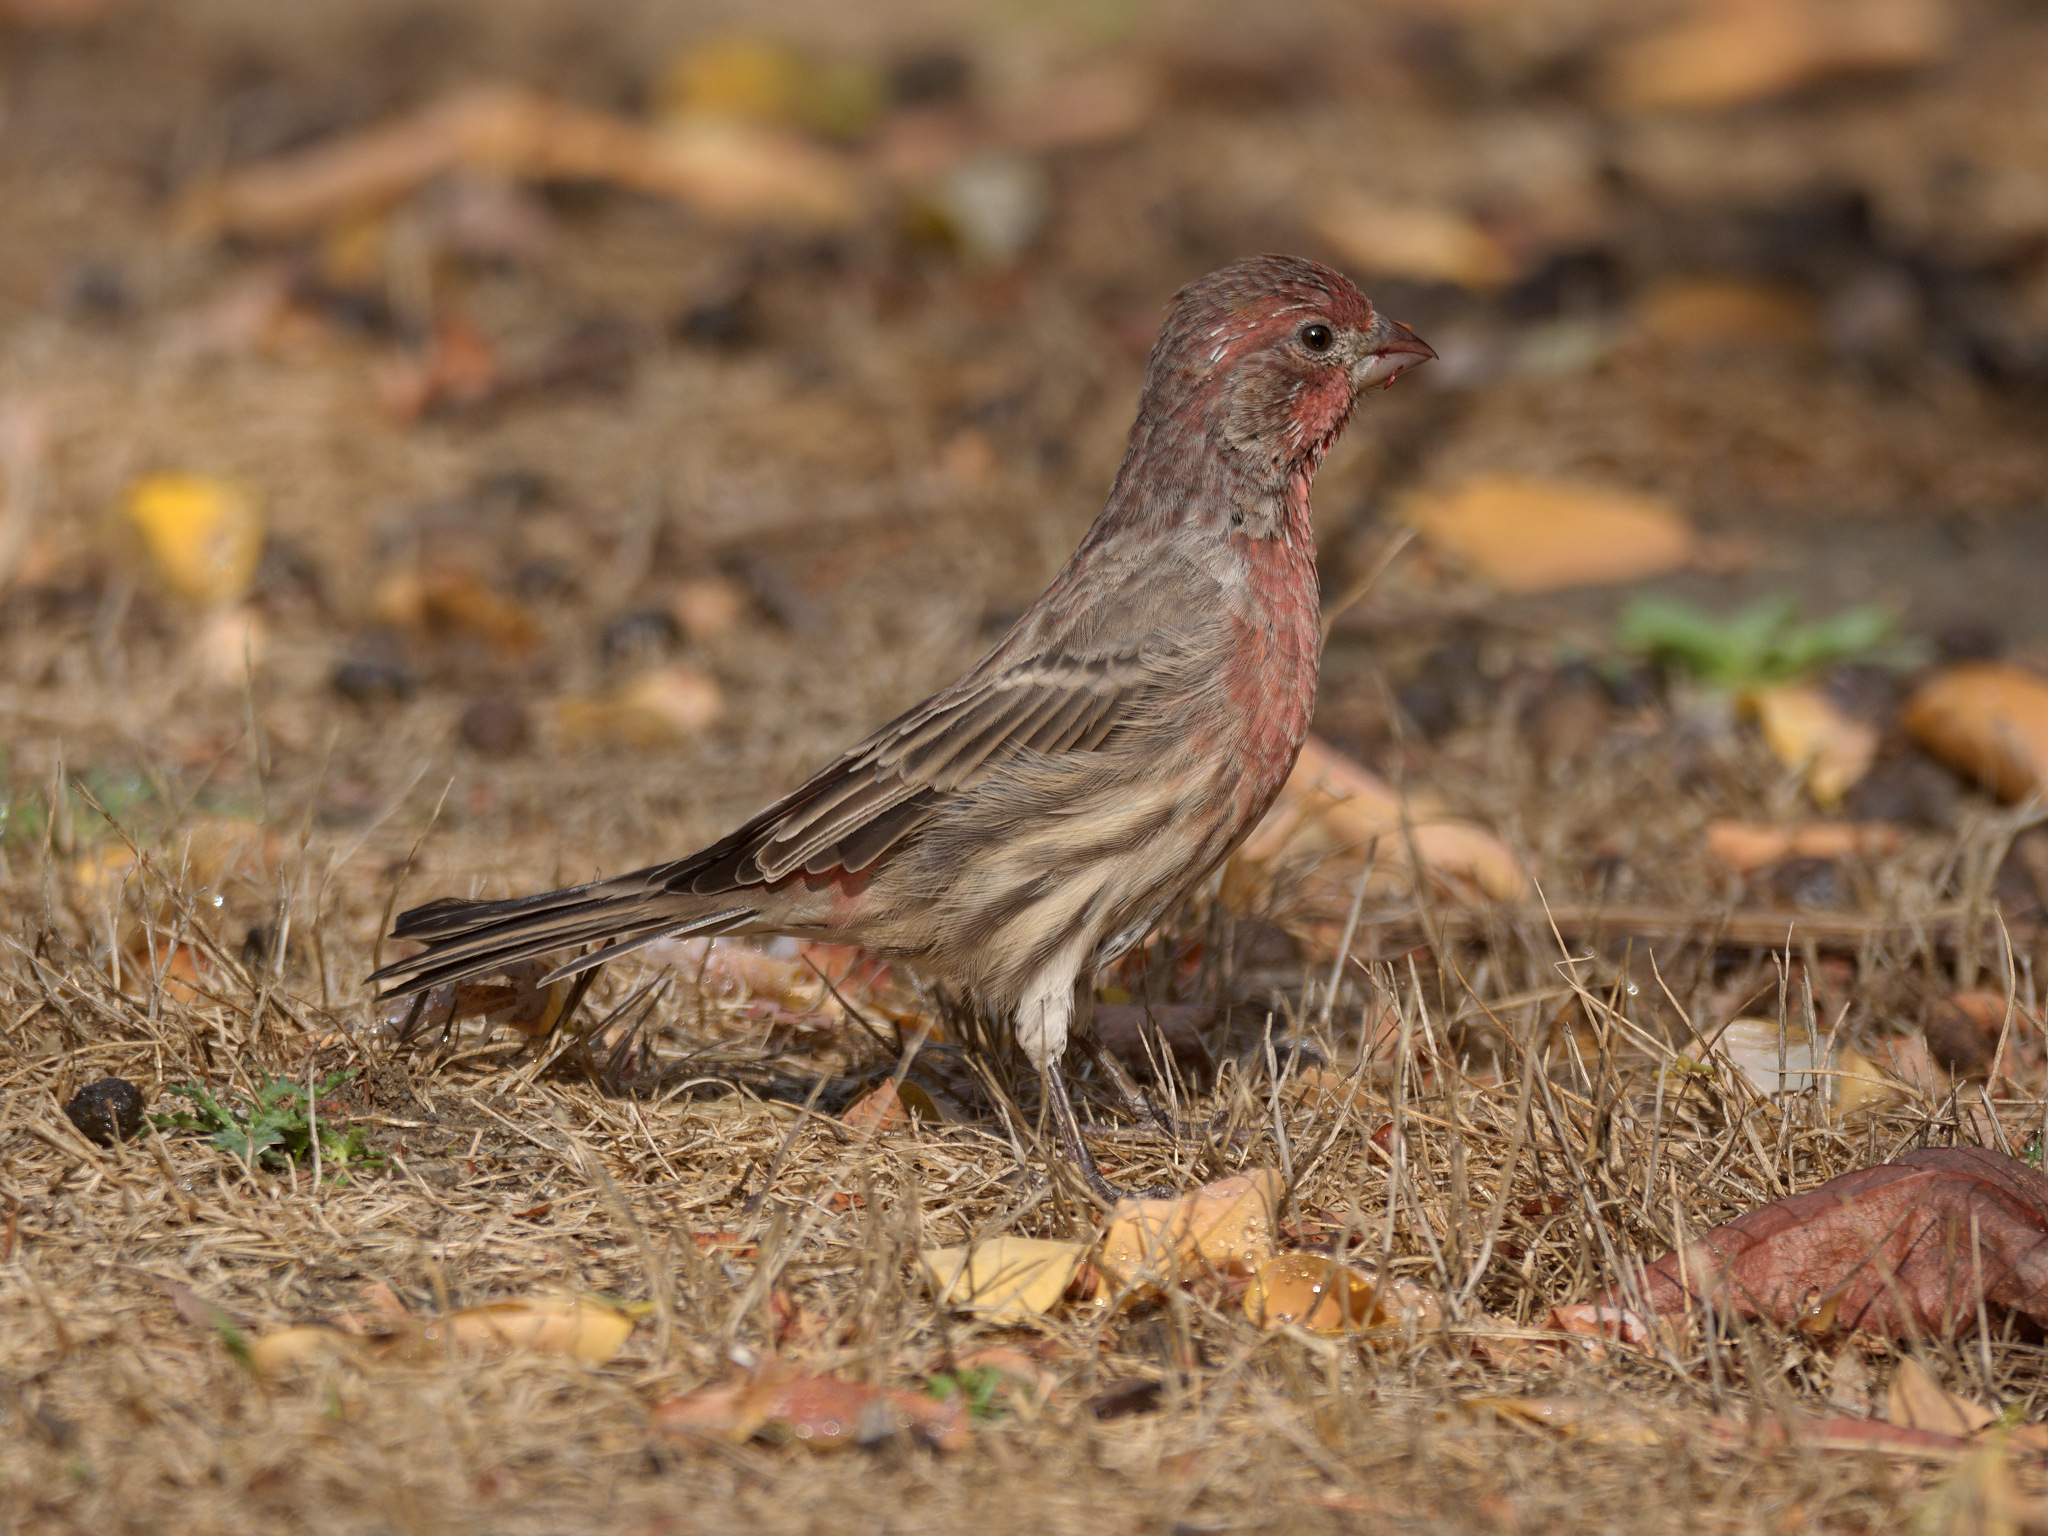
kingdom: Animalia
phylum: Chordata
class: Aves
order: Passeriformes
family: Fringillidae
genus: Haemorhous
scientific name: Haemorhous mexicanus
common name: House finch
